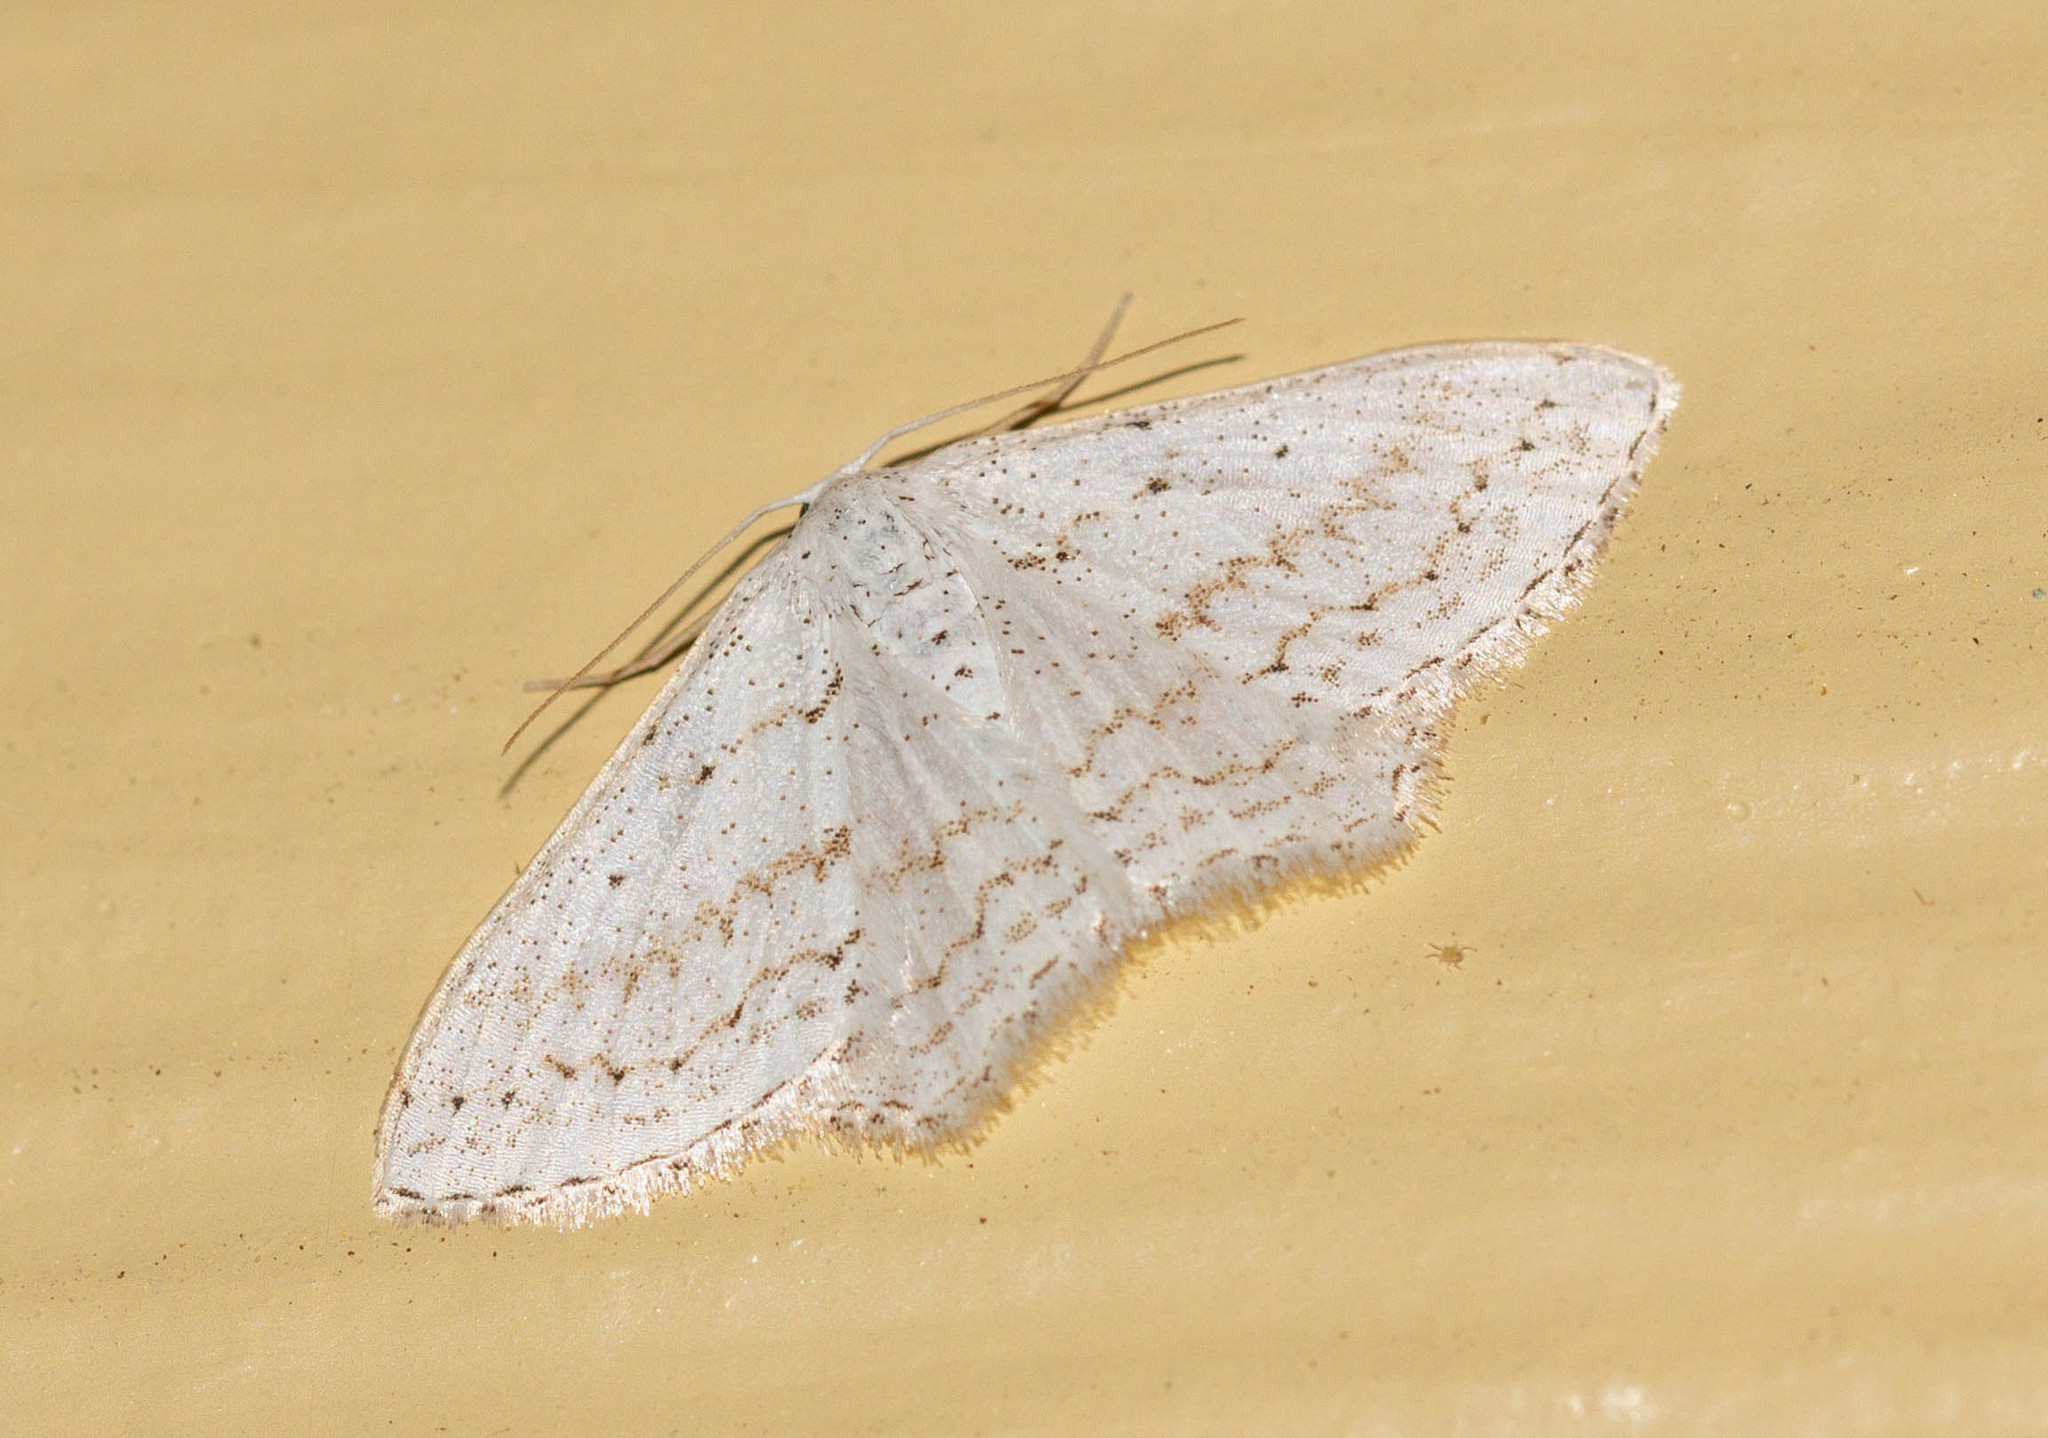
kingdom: Animalia
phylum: Arthropoda
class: Insecta
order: Lepidoptera
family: Geometridae
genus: Idaea
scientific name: Idaea tacturata
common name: Dot-lined wave
